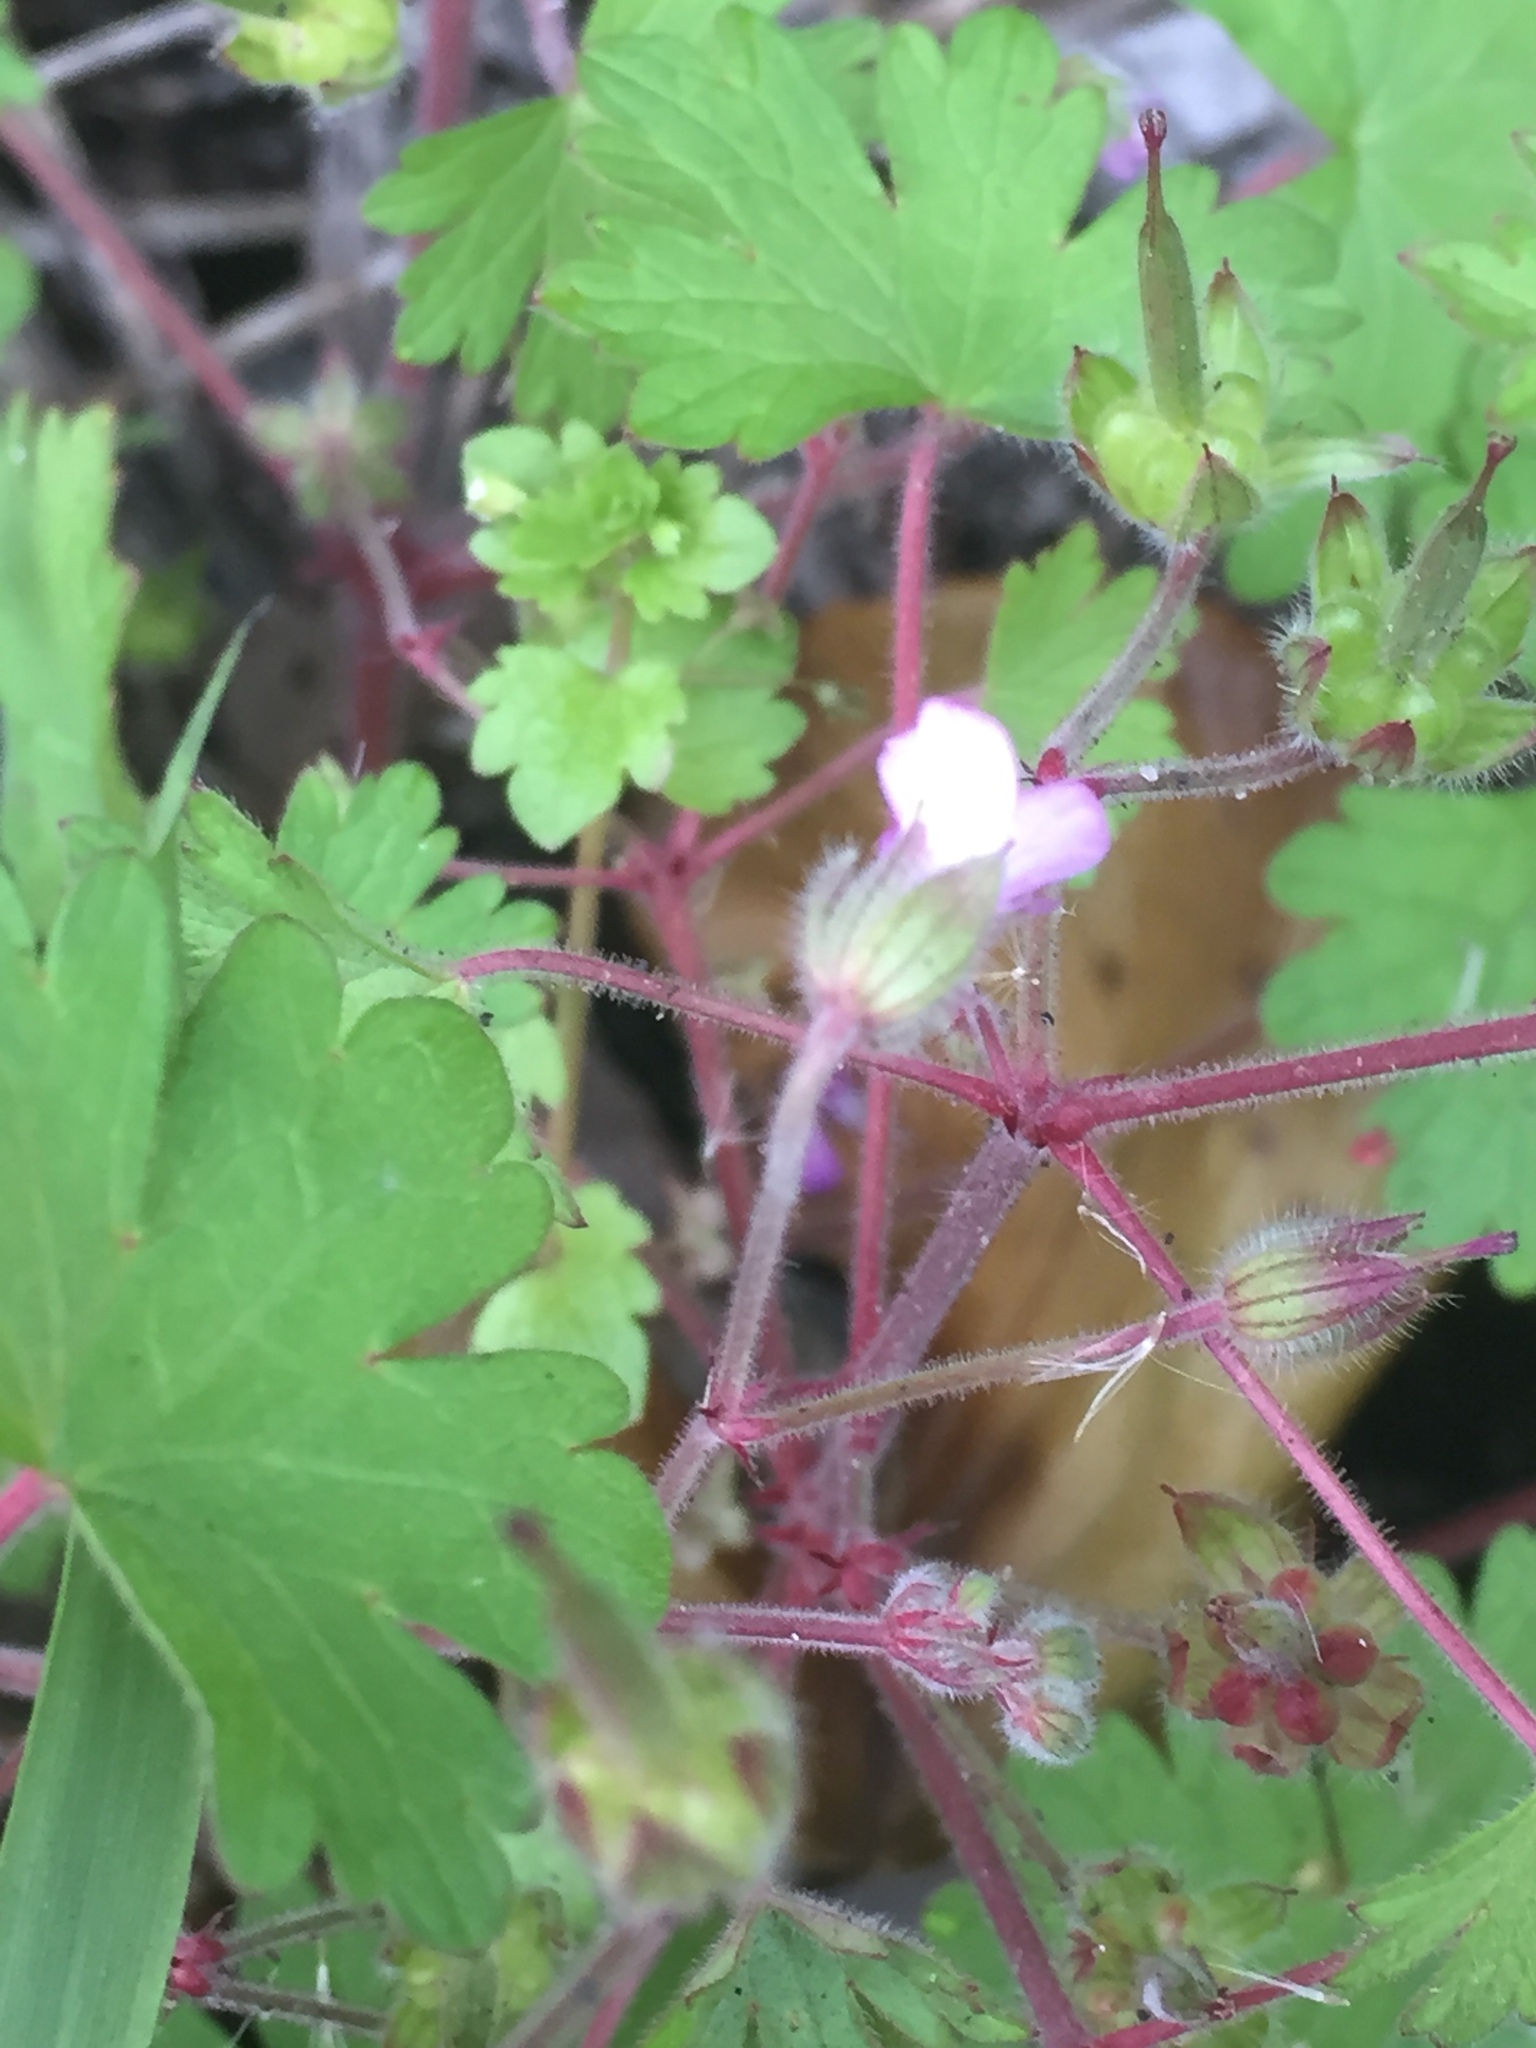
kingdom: Plantae
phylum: Tracheophyta
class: Magnoliopsida
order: Geraniales
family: Geraniaceae
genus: Geranium
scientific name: Geranium rotundifolium
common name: Round-leaved crane's-bill
